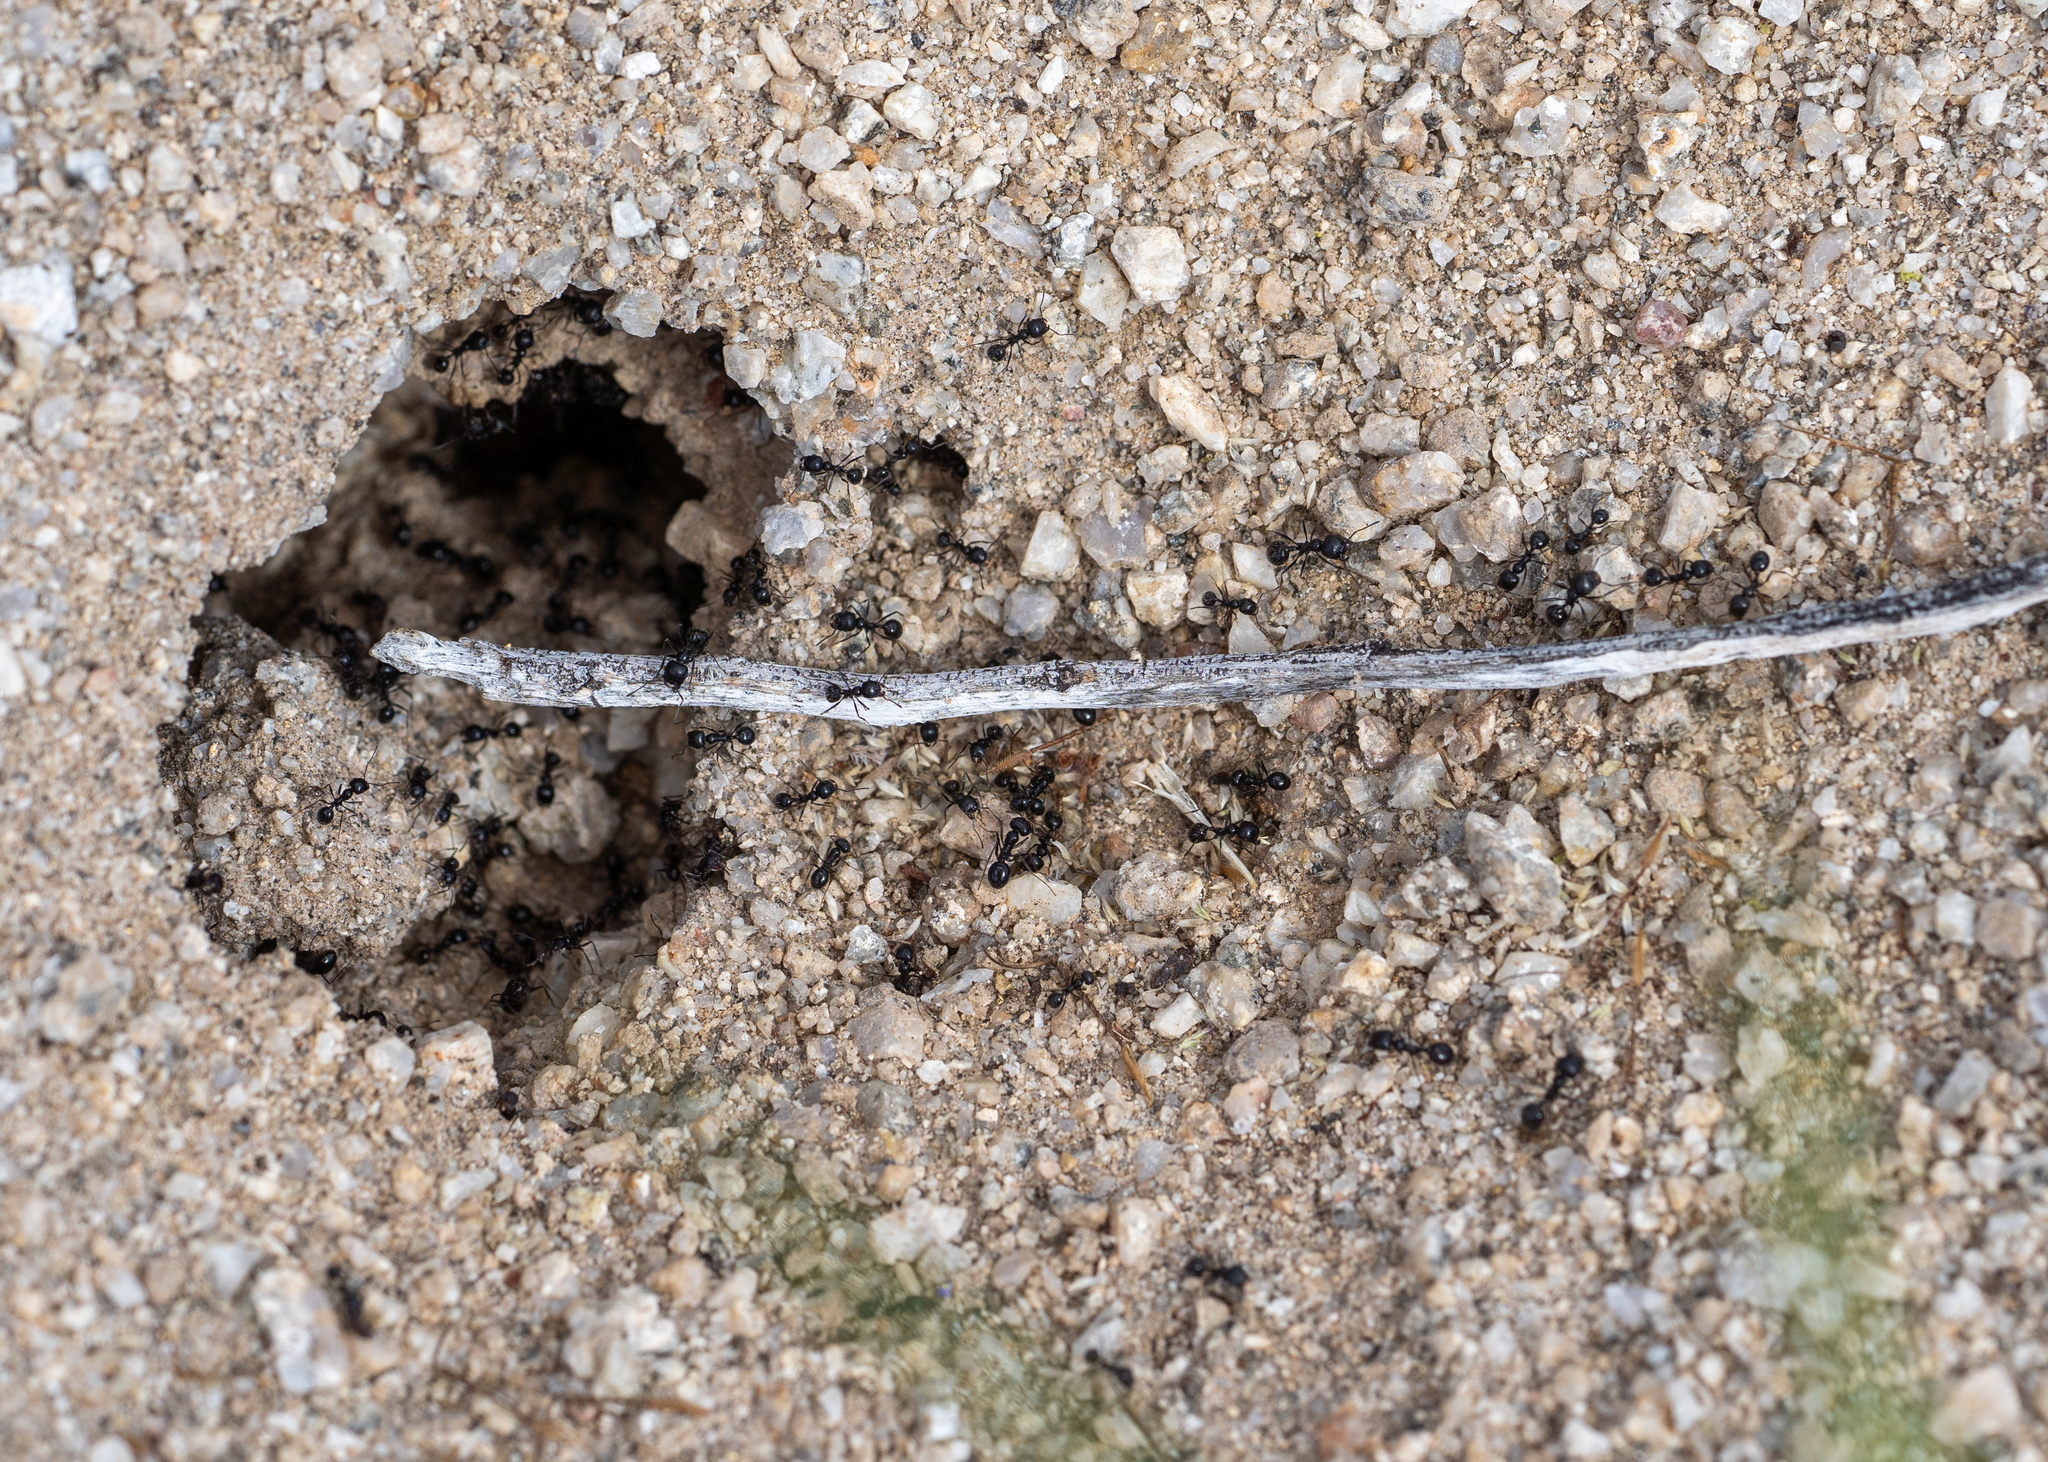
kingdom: Animalia
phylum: Arthropoda
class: Insecta
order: Hymenoptera
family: Formicidae
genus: Messor
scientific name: Messor pergandei
